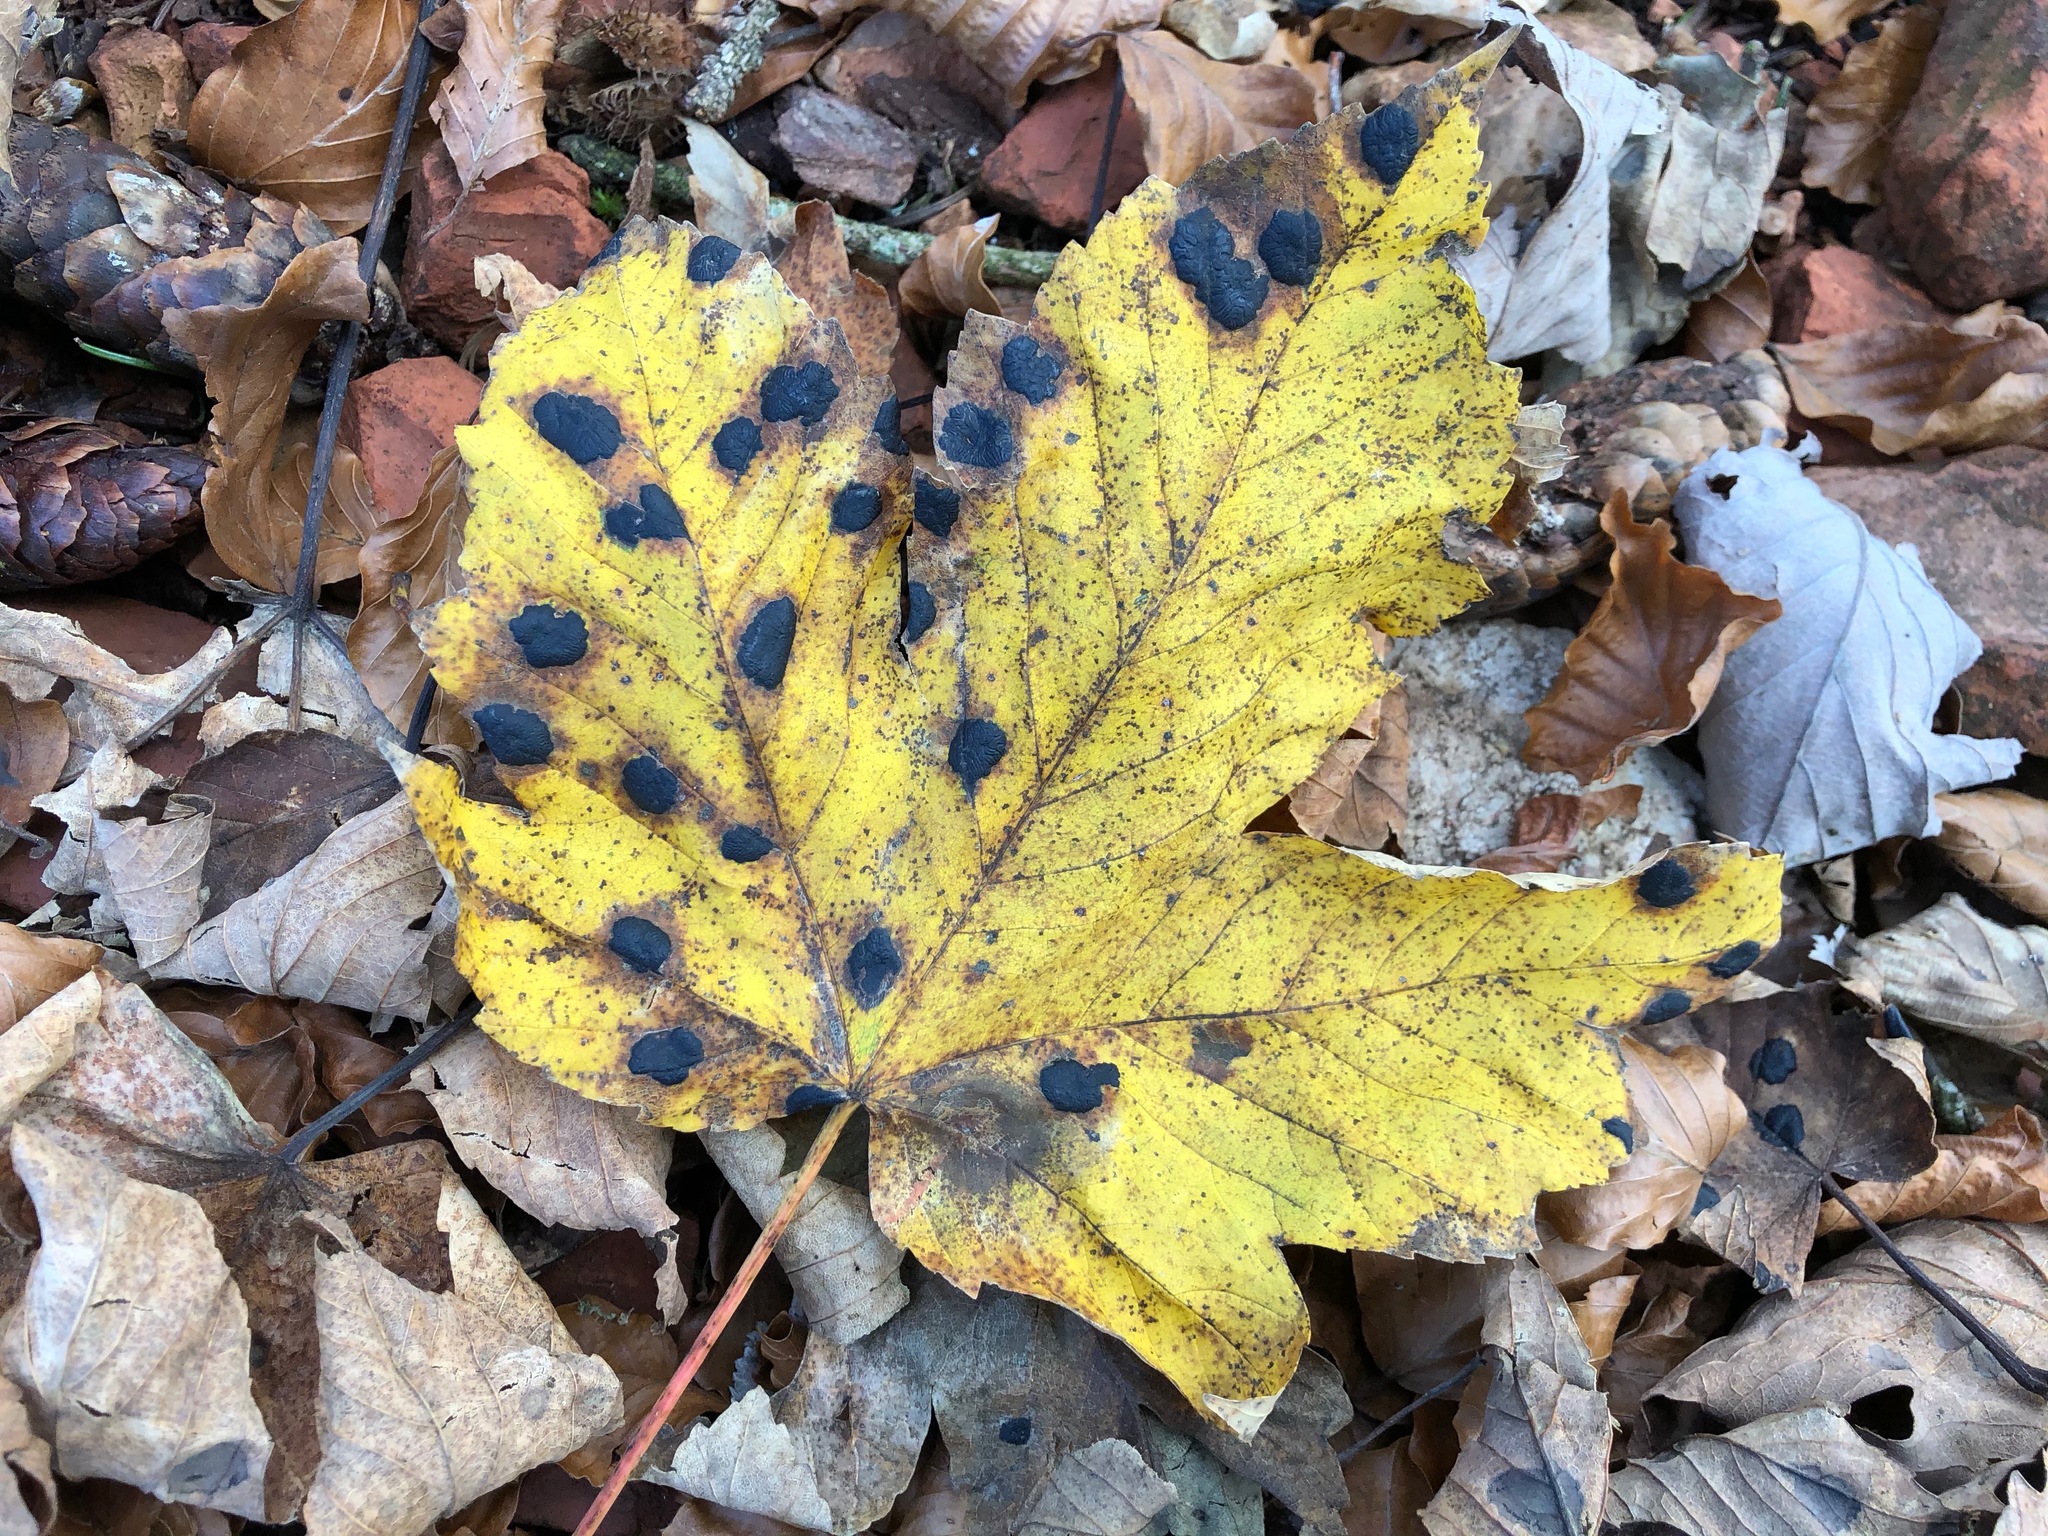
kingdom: Fungi
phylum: Ascomycota
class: Leotiomycetes
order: Rhytismatales
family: Rhytismataceae
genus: Rhytisma
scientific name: Rhytisma acerinum
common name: European tar spot
